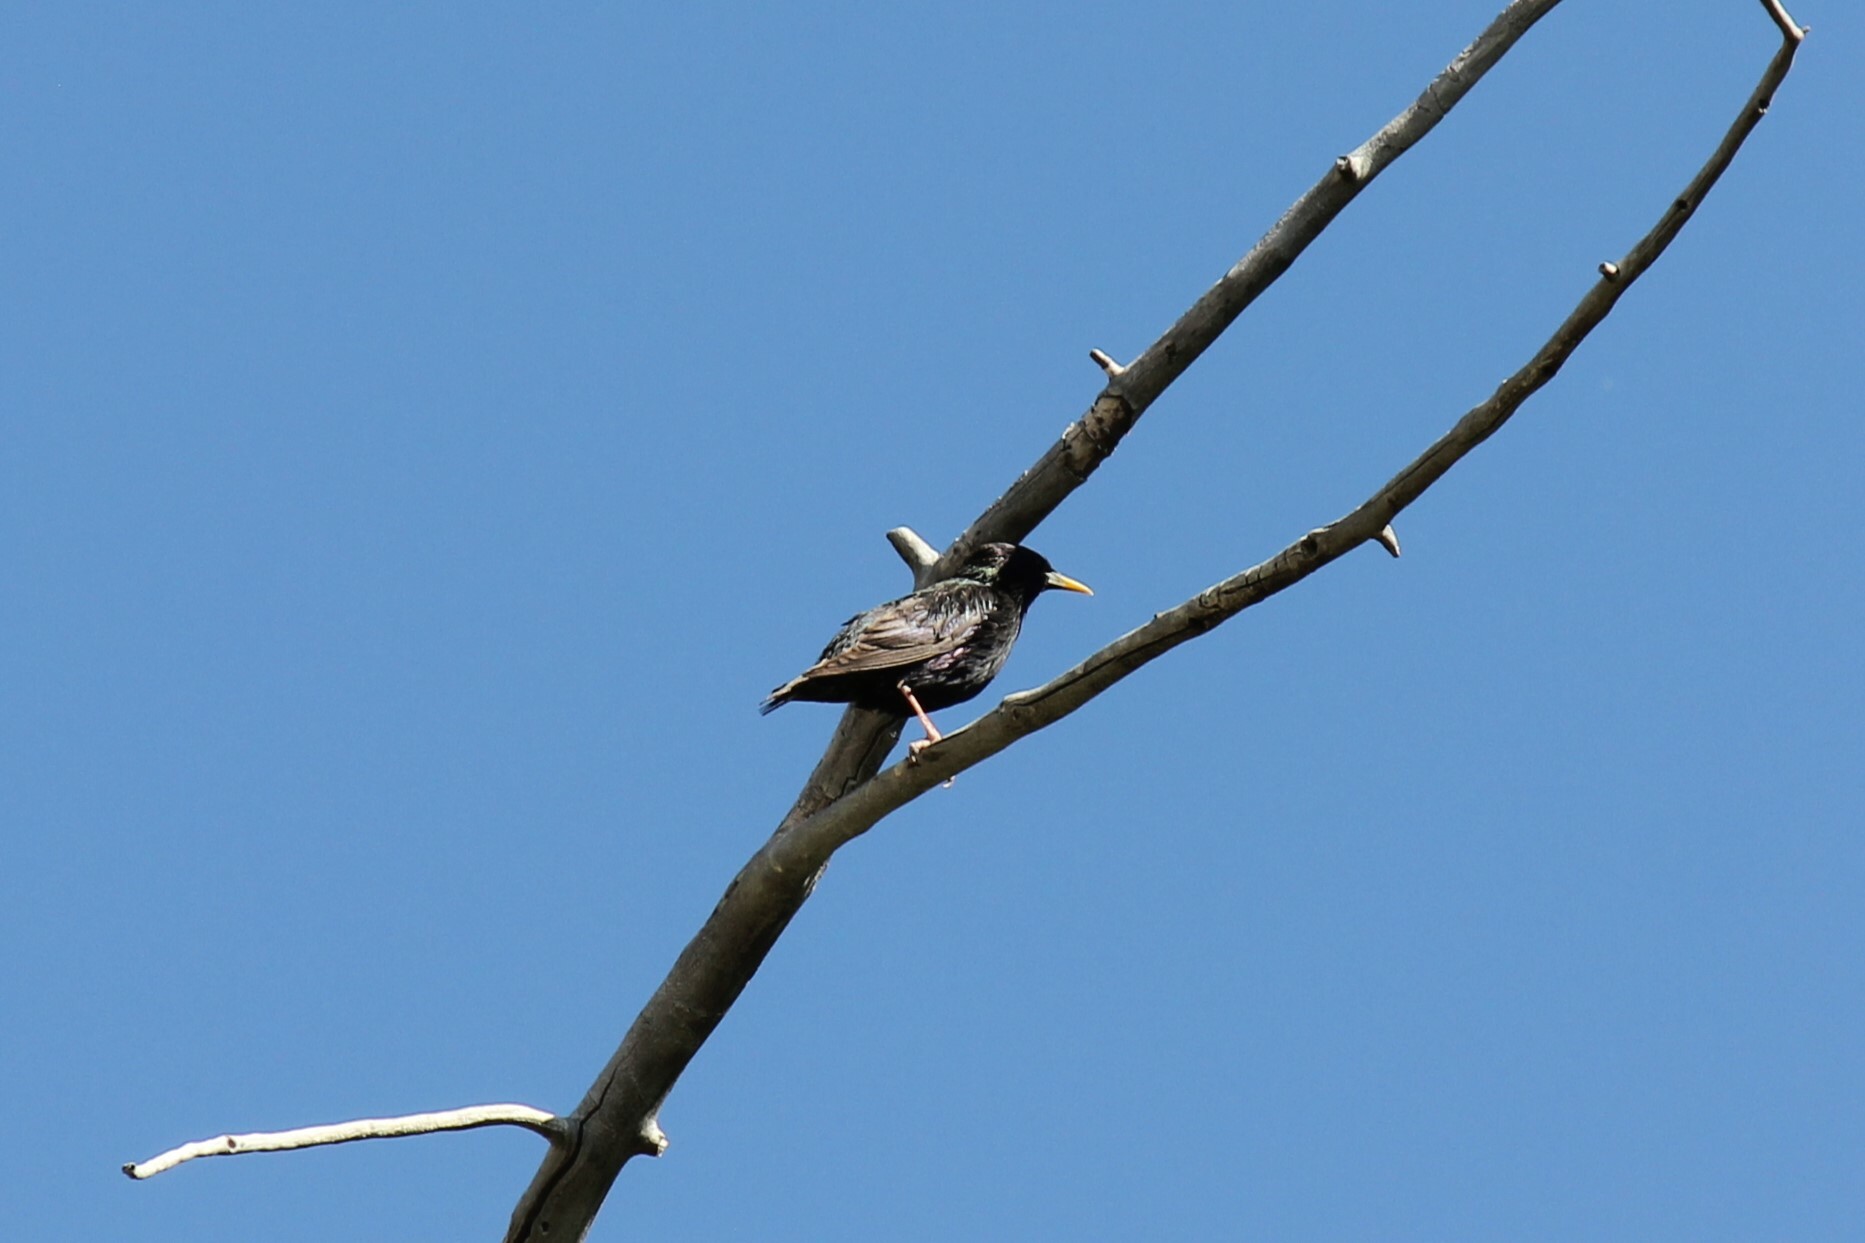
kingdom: Animalia
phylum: Chordata
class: Aves
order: Passeriformes
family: Sturnidae
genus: Sturnus
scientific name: Sturnus vulgaris
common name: Common starling
